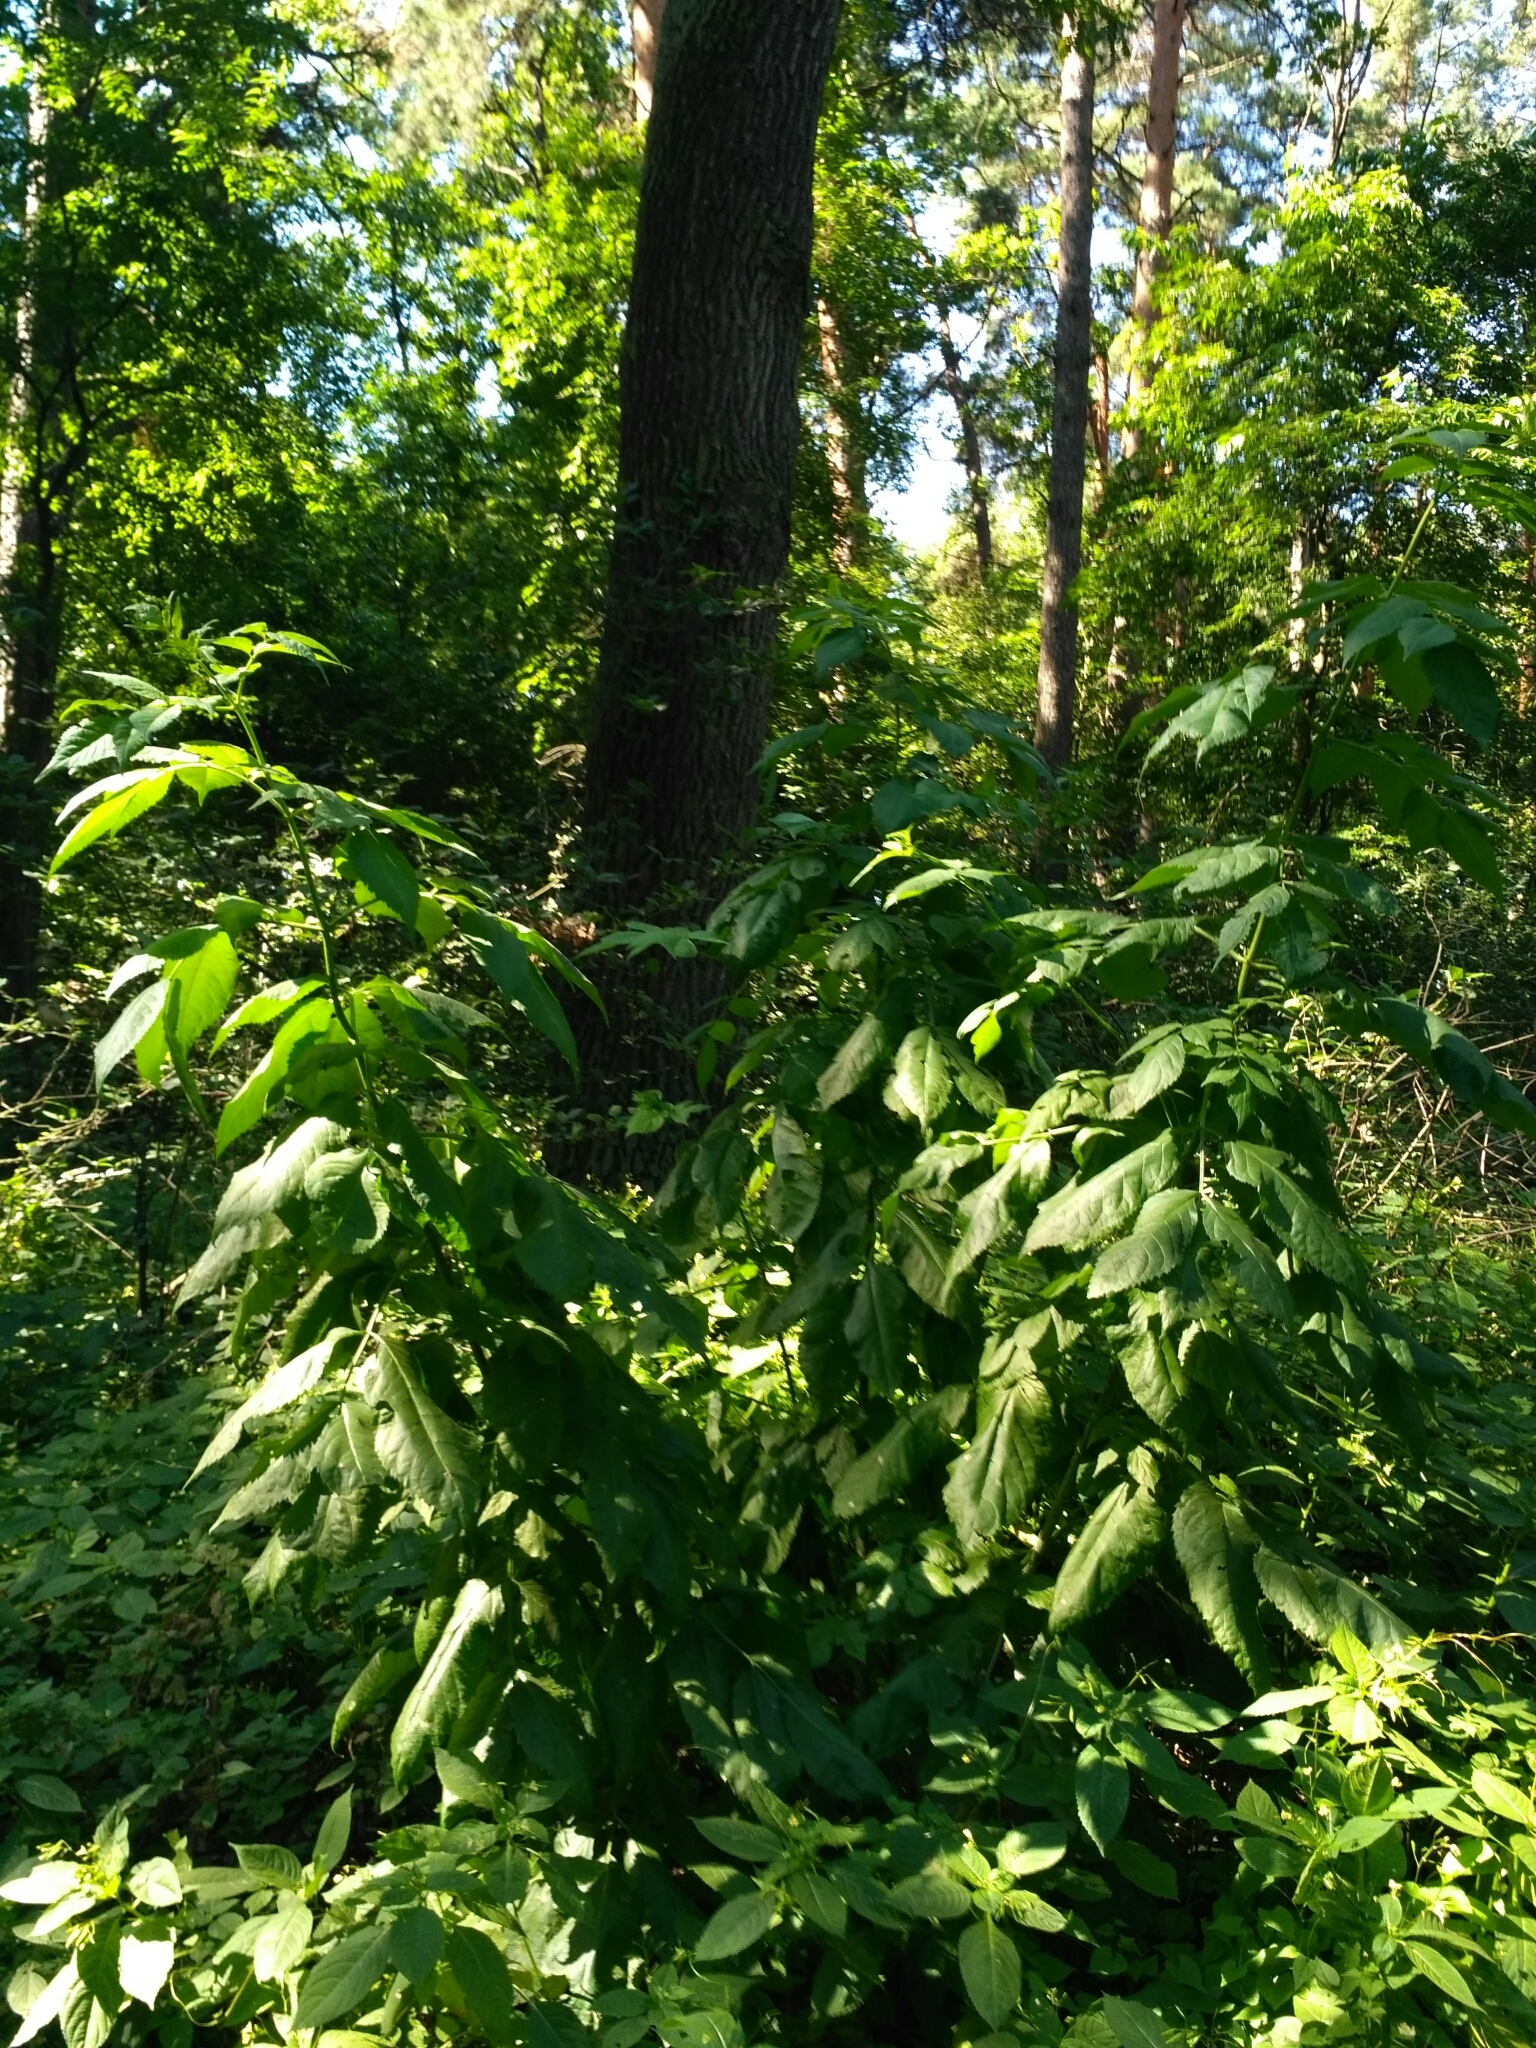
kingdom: Plantae
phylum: Tracheophyta
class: Magnoliopsida
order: Dipsacales
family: Viburnaceae
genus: Sambucus
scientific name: Sambucus nigra
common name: Elder
